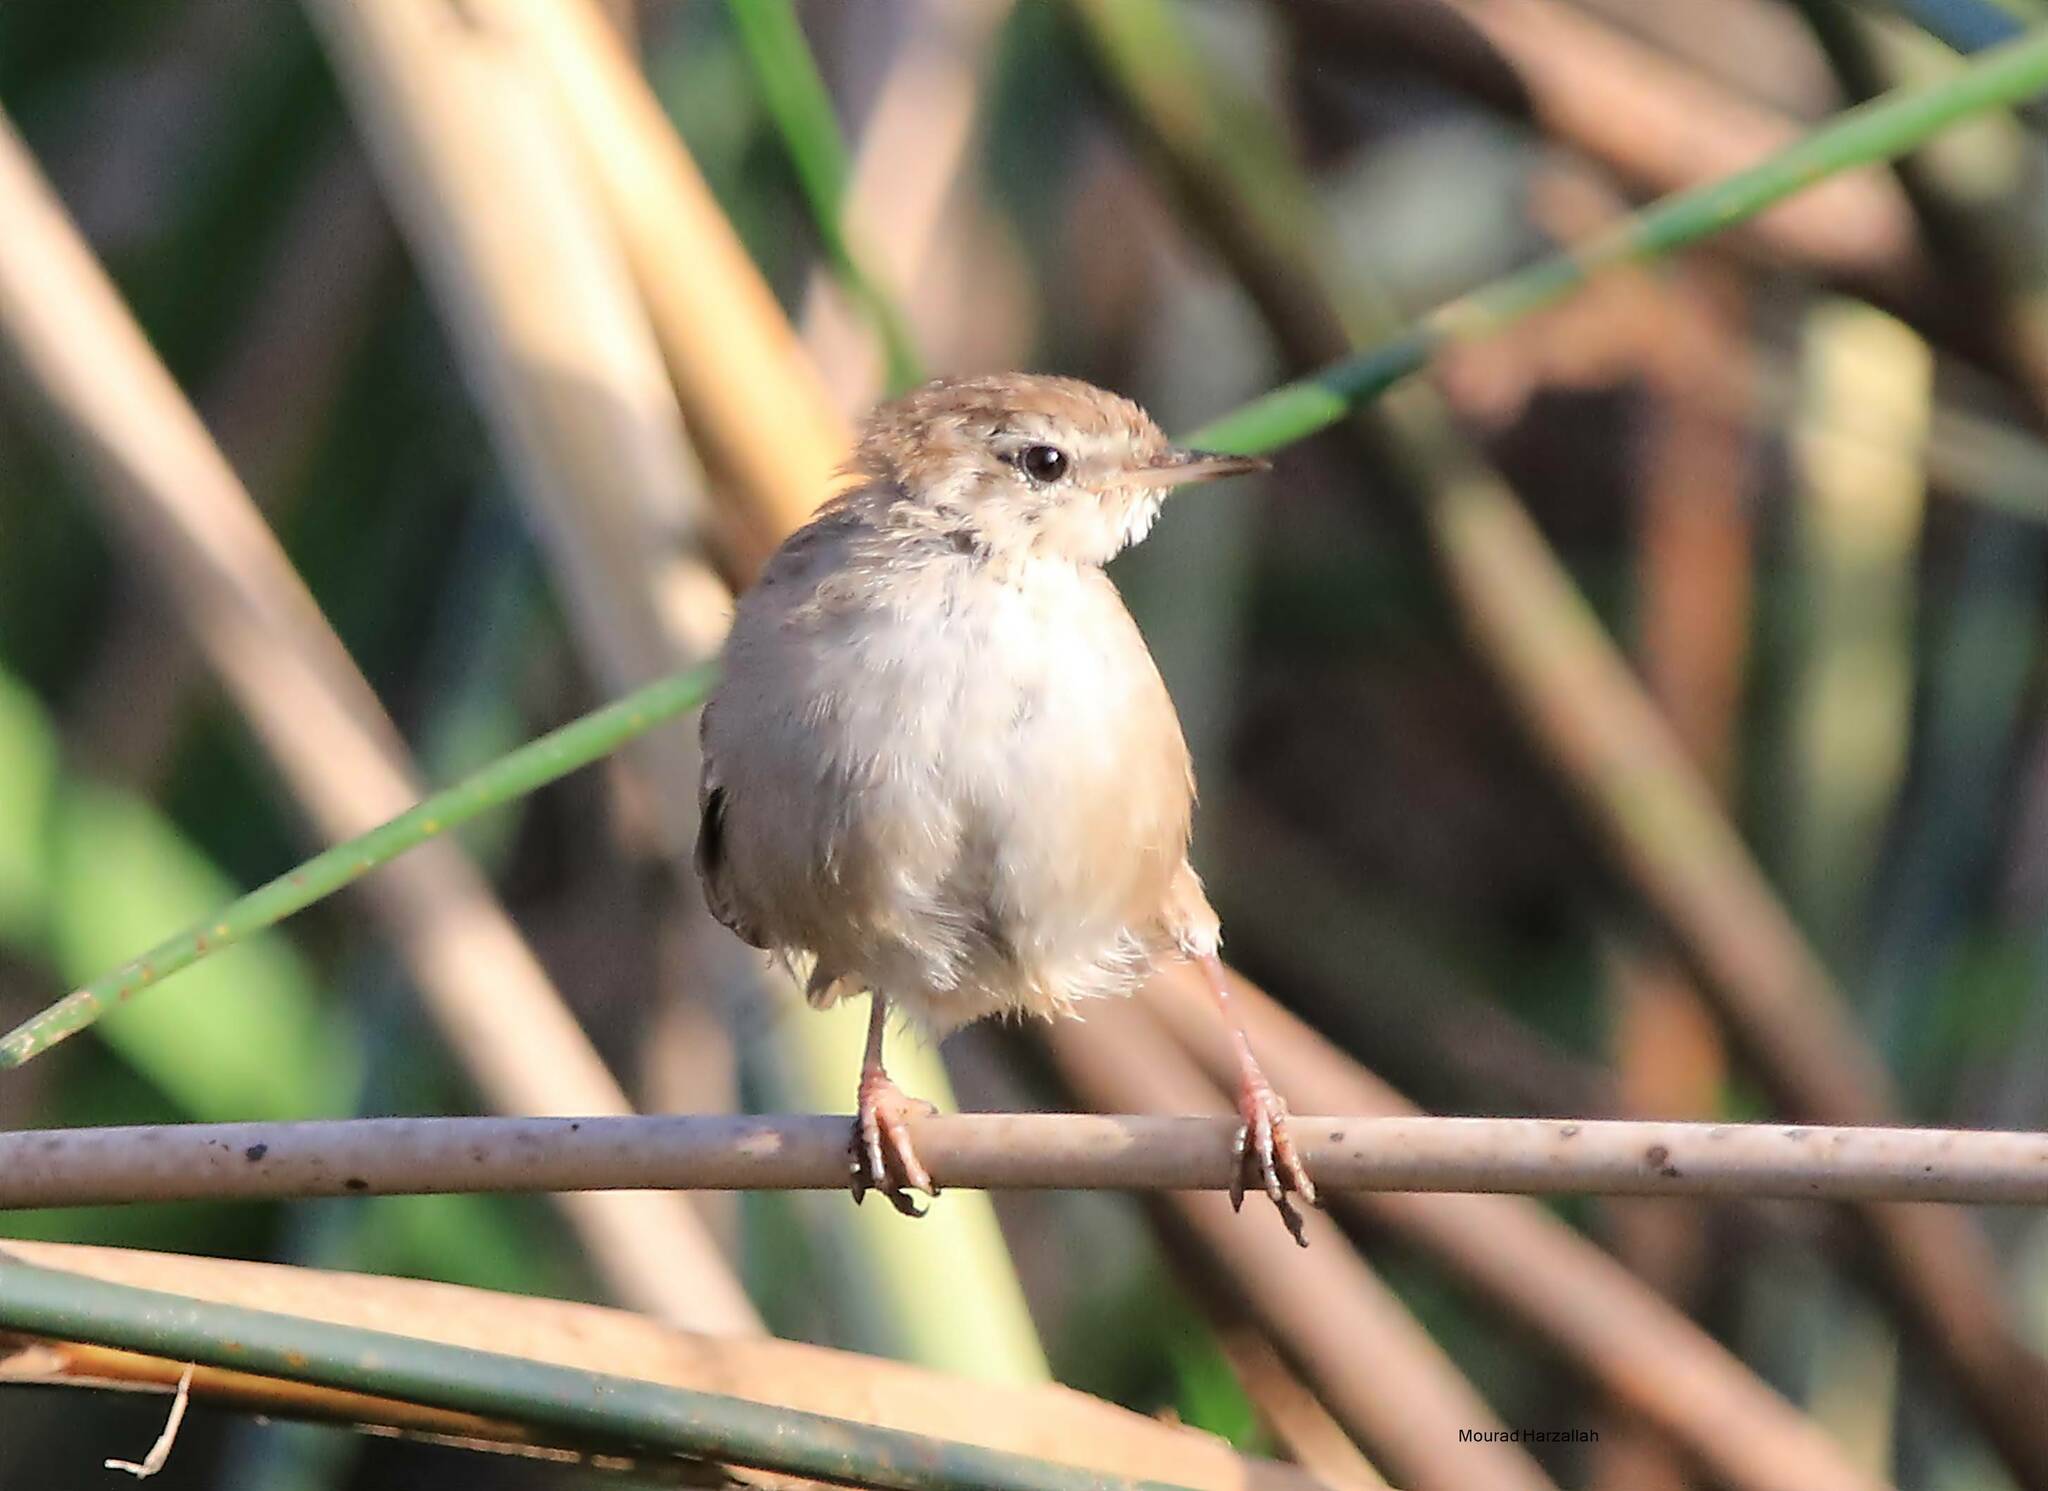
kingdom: Animalia
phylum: Chordata
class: Aves
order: Passeriformes
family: Cettiidae
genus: Cettia
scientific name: Cettia cetti
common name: Cetti's warbler
